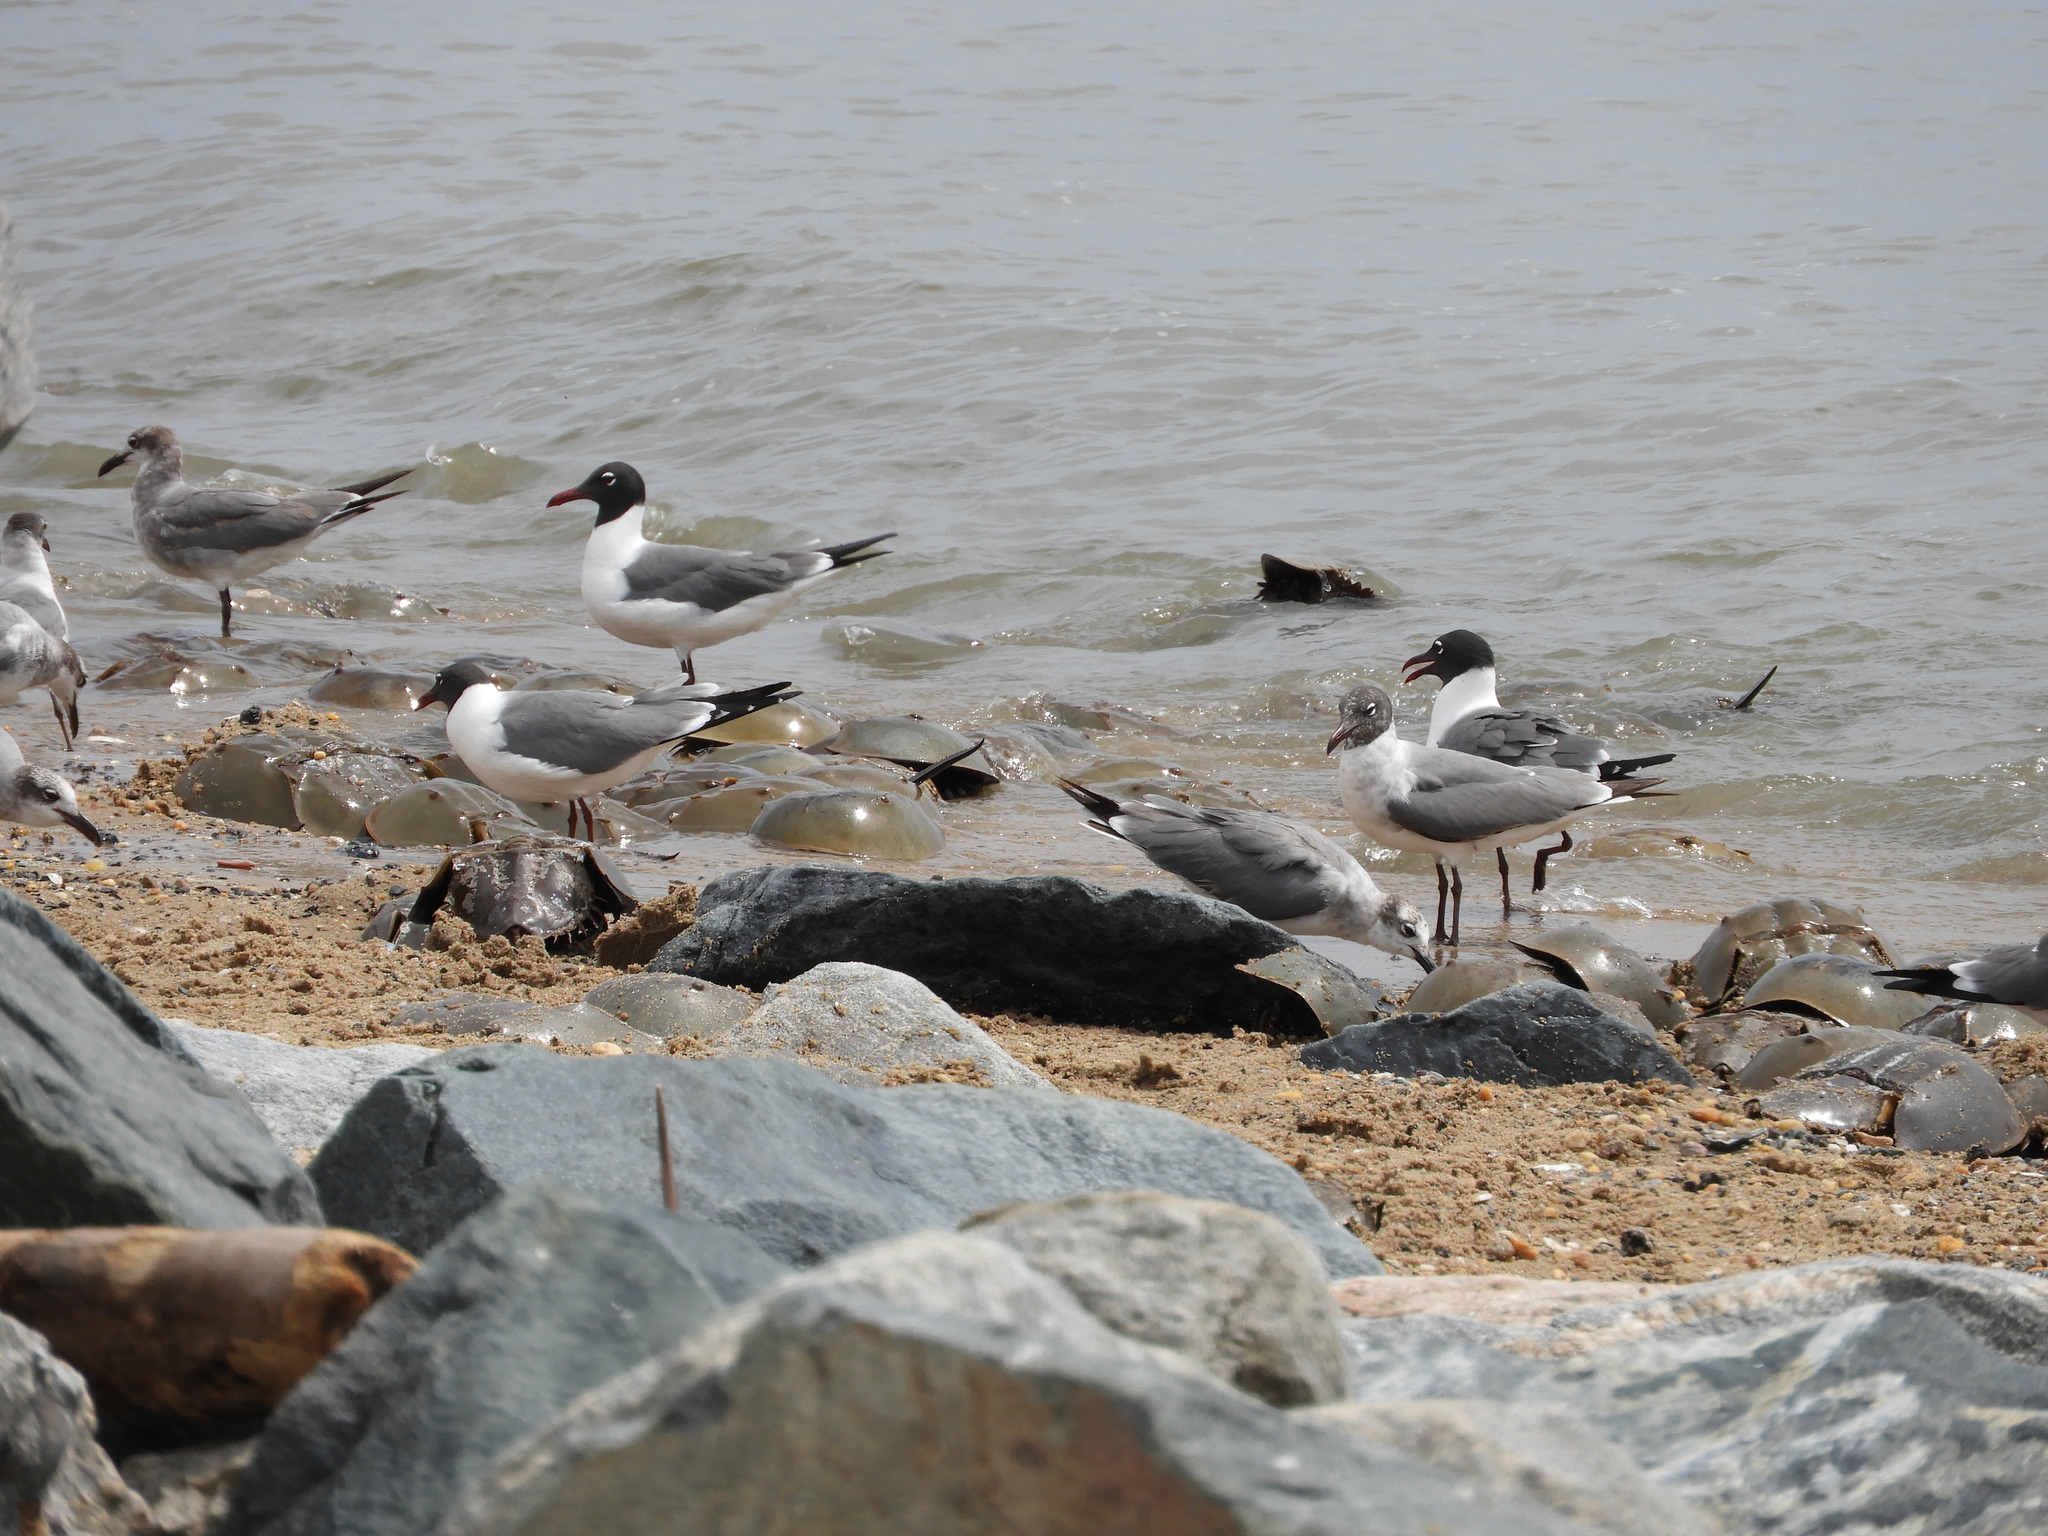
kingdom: Animalia
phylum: Chordata
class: Aves
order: Charadriiformes
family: Laridae
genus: Leucophaeus
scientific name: Leucophaeus atricilla
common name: Laughing gull
